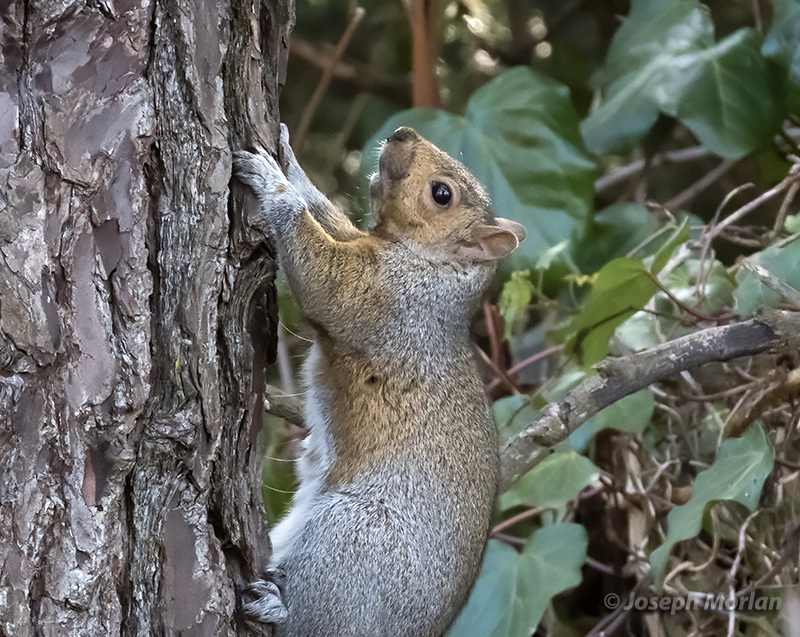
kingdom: Animalia
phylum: Chordata
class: Mammalia
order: Rodentia
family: Sciuridae
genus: Sciurus
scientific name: Sciurus carolinensis
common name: Eastern gray squirrel
